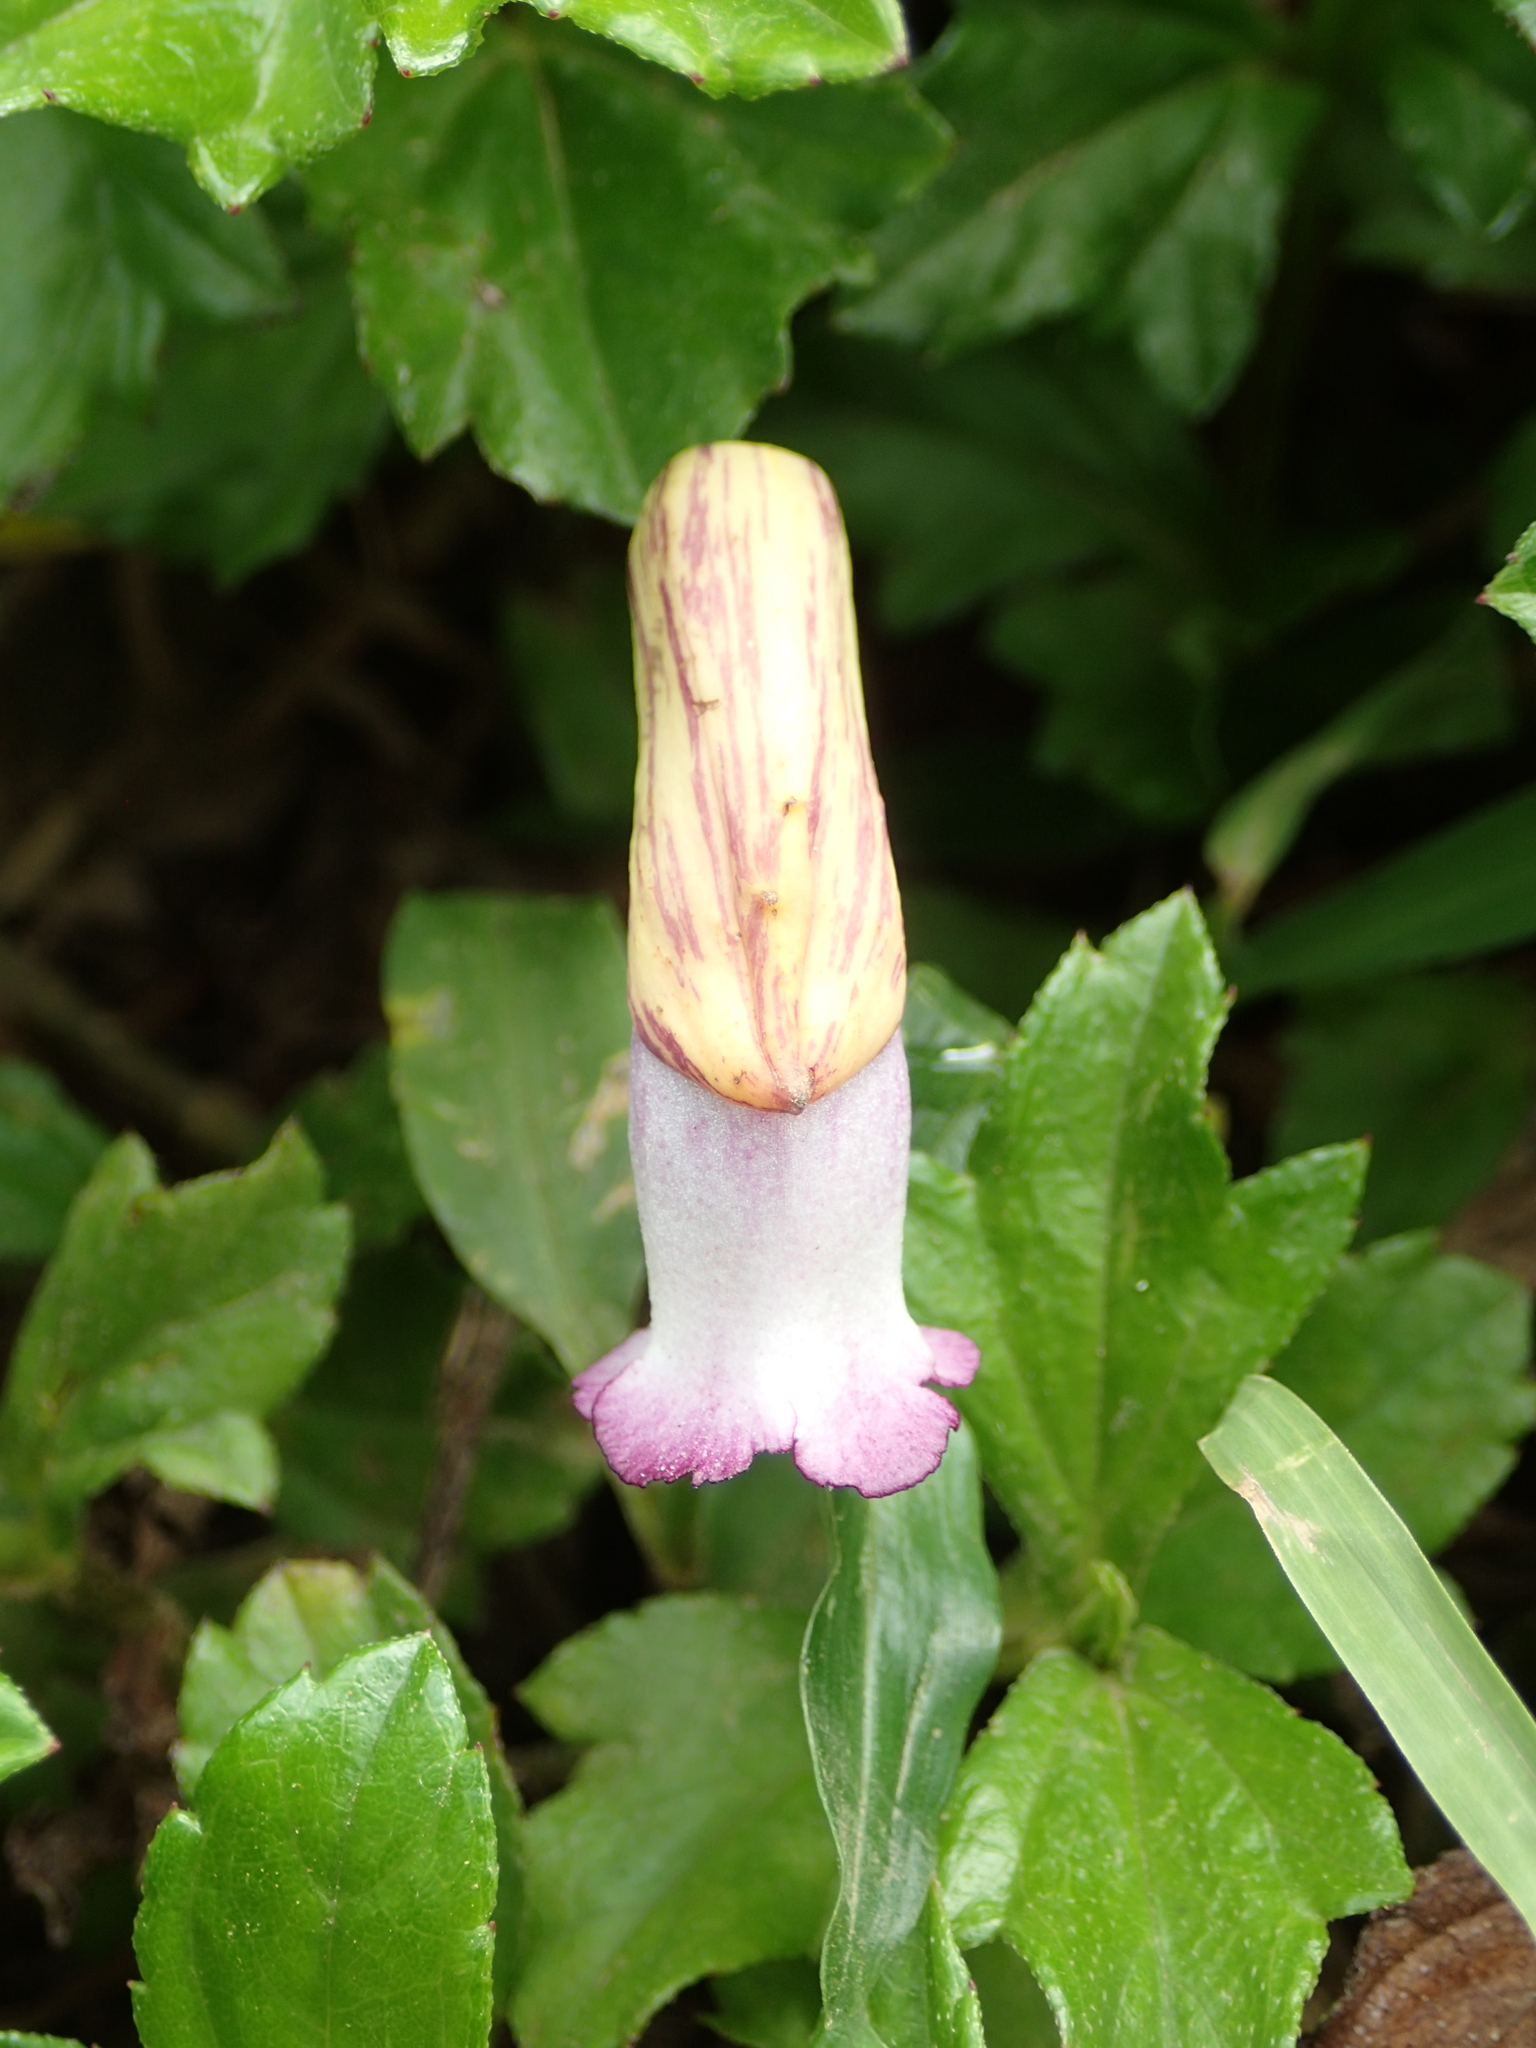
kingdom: Plantae
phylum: Tracheophyta
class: Magnoliopsida
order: Lamiales
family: Orobanchaceae
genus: Aeginetia
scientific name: Aeginetia indica
